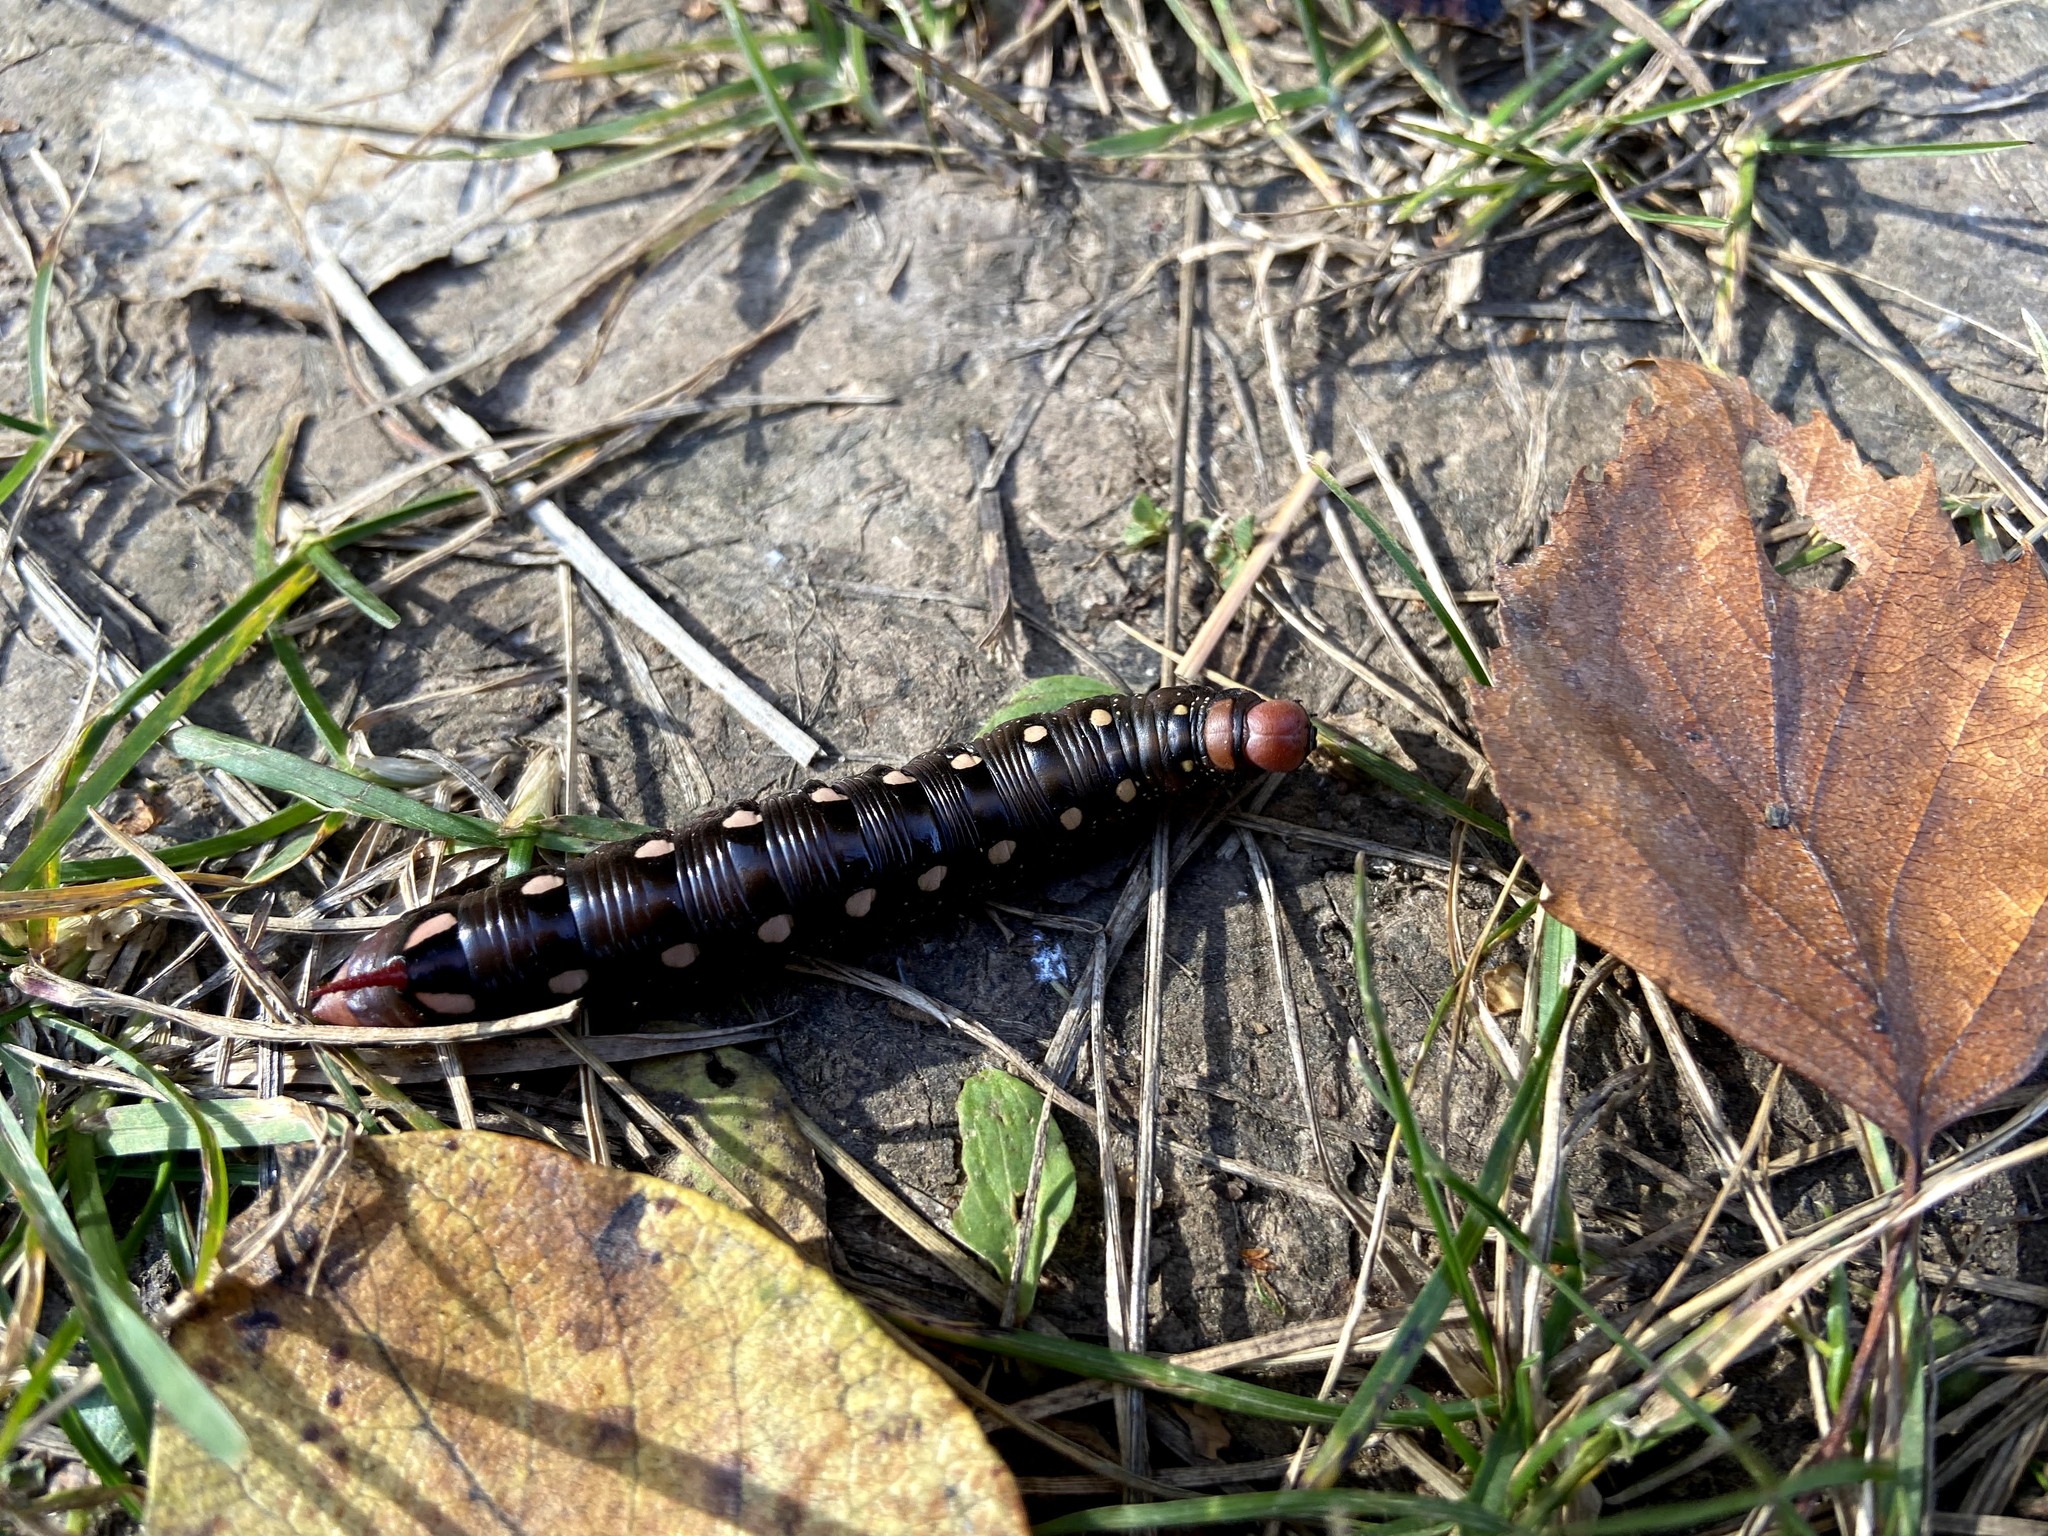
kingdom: Animalia
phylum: Arthropoda
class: Insecta
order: Lepidoptera
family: Sphingidae
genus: Hyles
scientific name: Hyles gallii
